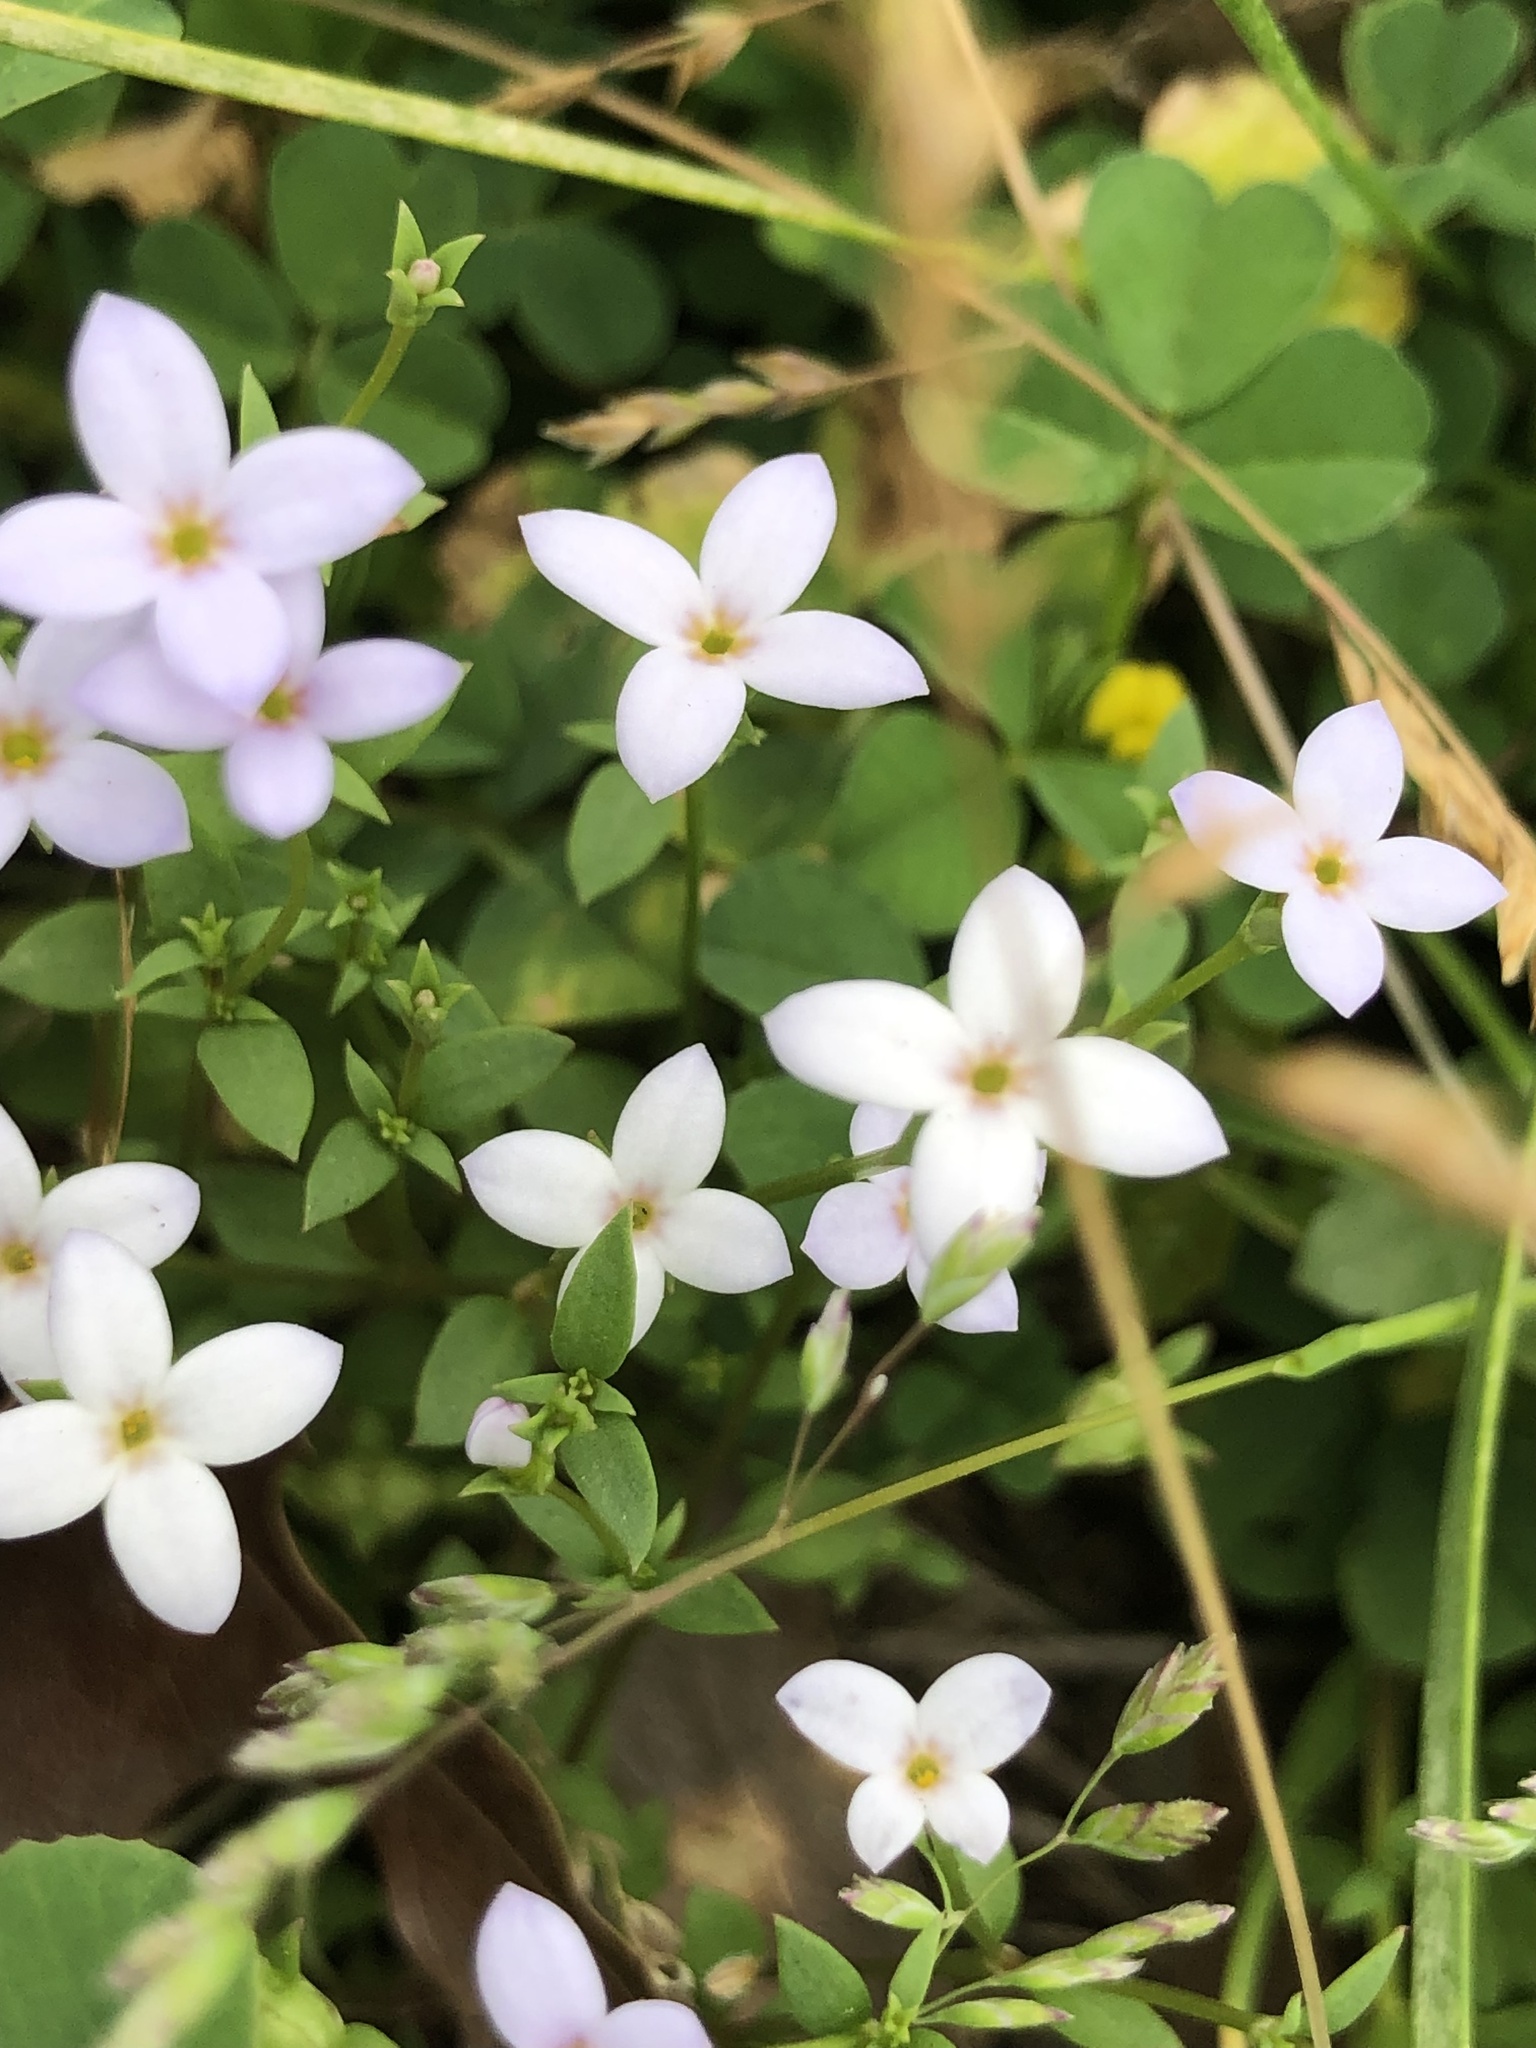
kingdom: Plantae
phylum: Tracheophyta
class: Magnoliopsida
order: Gentianales
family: Rubiaceae
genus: Houstonia
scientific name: Houstonia pusilla
